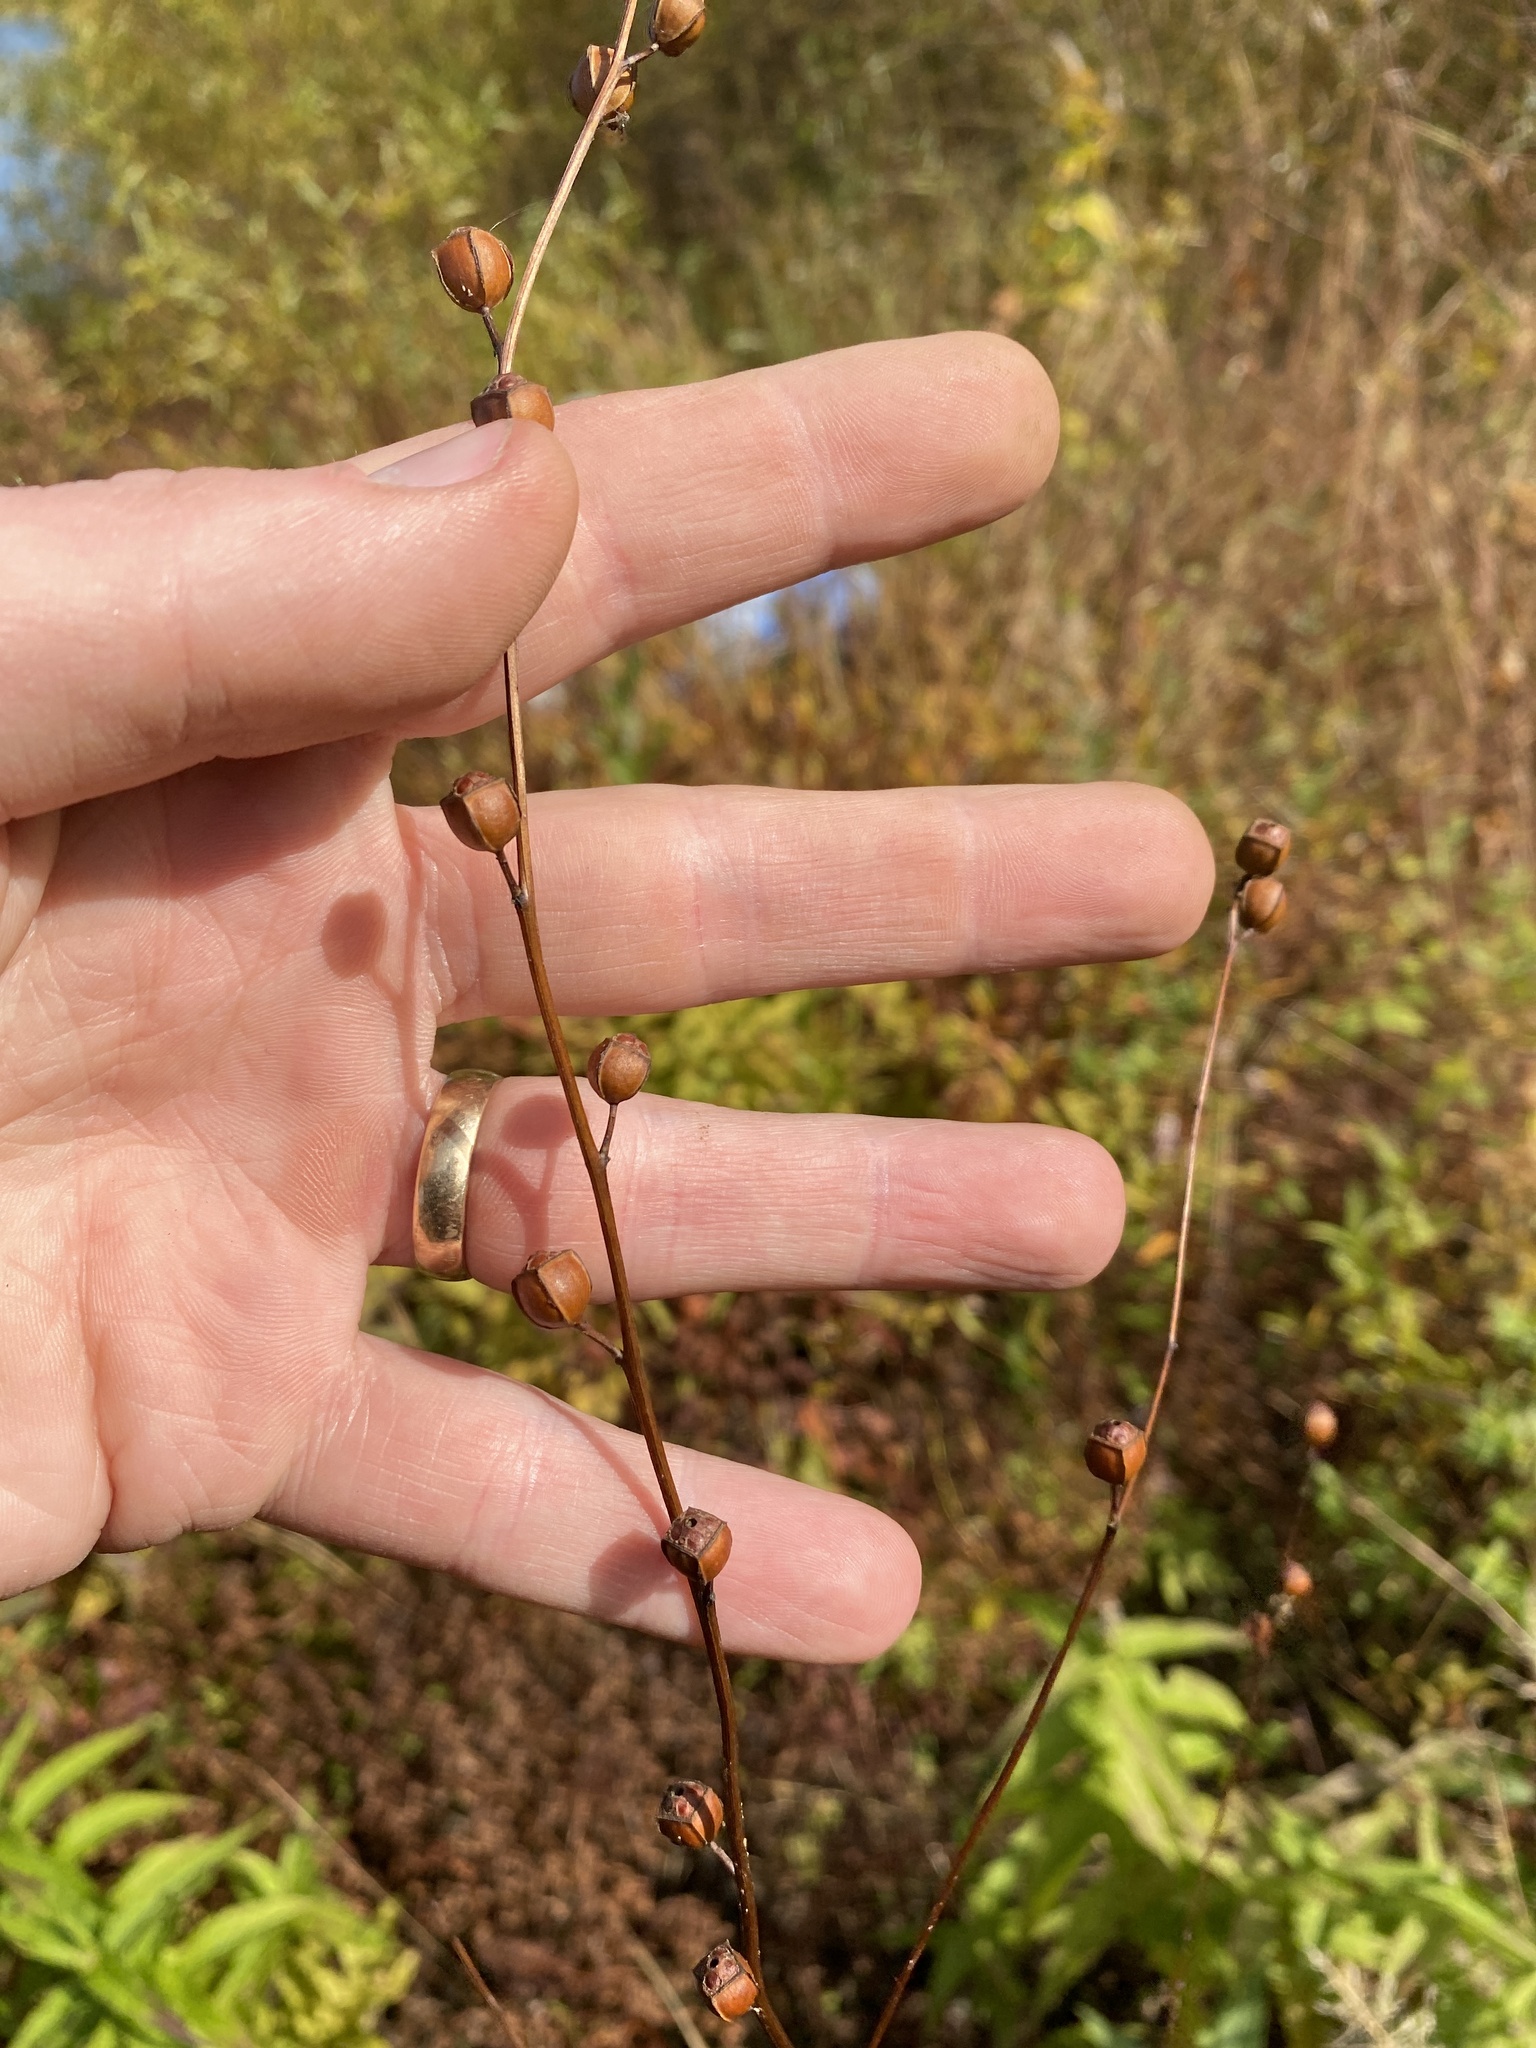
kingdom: Plantae
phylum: Tracheophyta
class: Magnoliopsida
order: Myrtales
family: Onagraceae
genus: Ludwigia
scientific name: Ludwigia alternifolia
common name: Rattlebox
